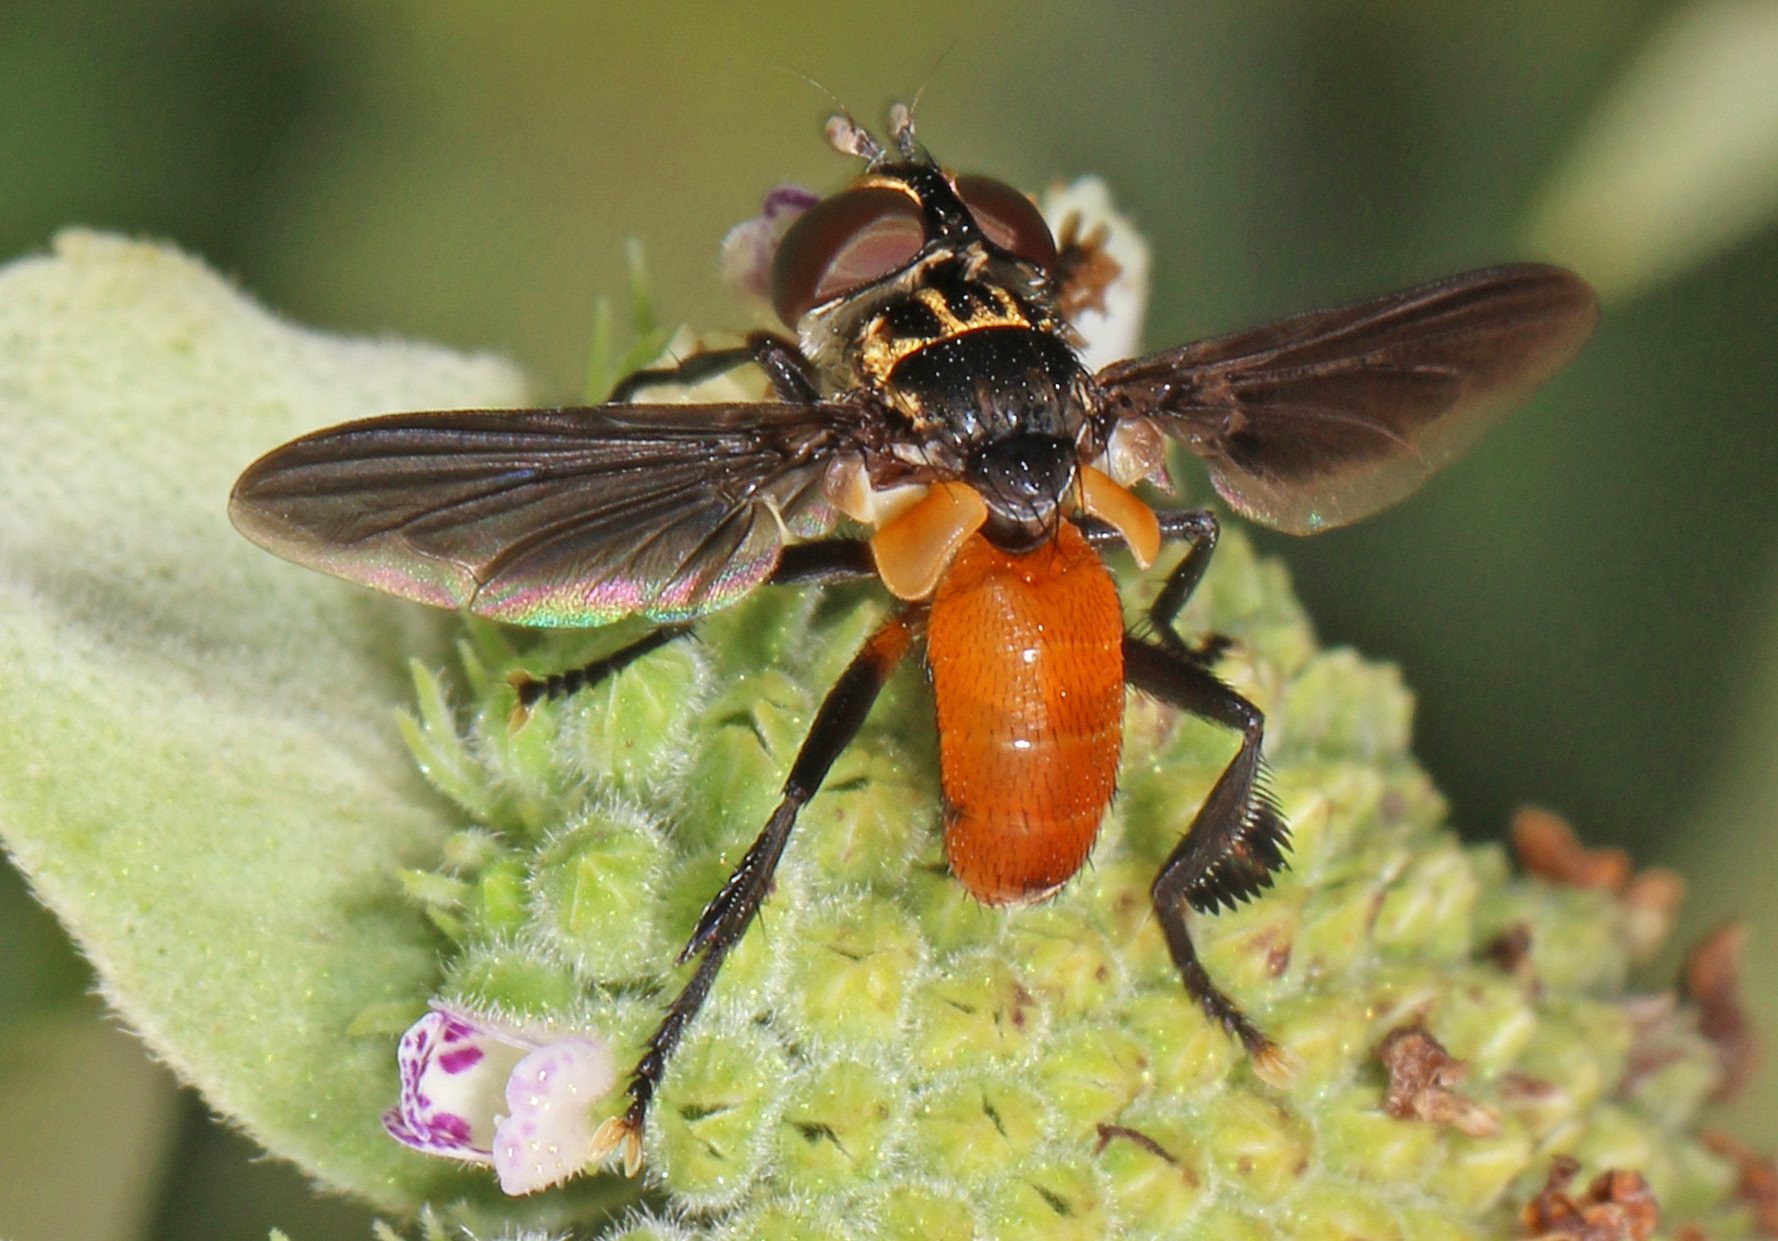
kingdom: Animalia
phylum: Arthropoda
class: Insecta
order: Diptera
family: Tachinidae
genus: Trichopoda
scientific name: Trichopoda pennipes
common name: Tachinid fly
